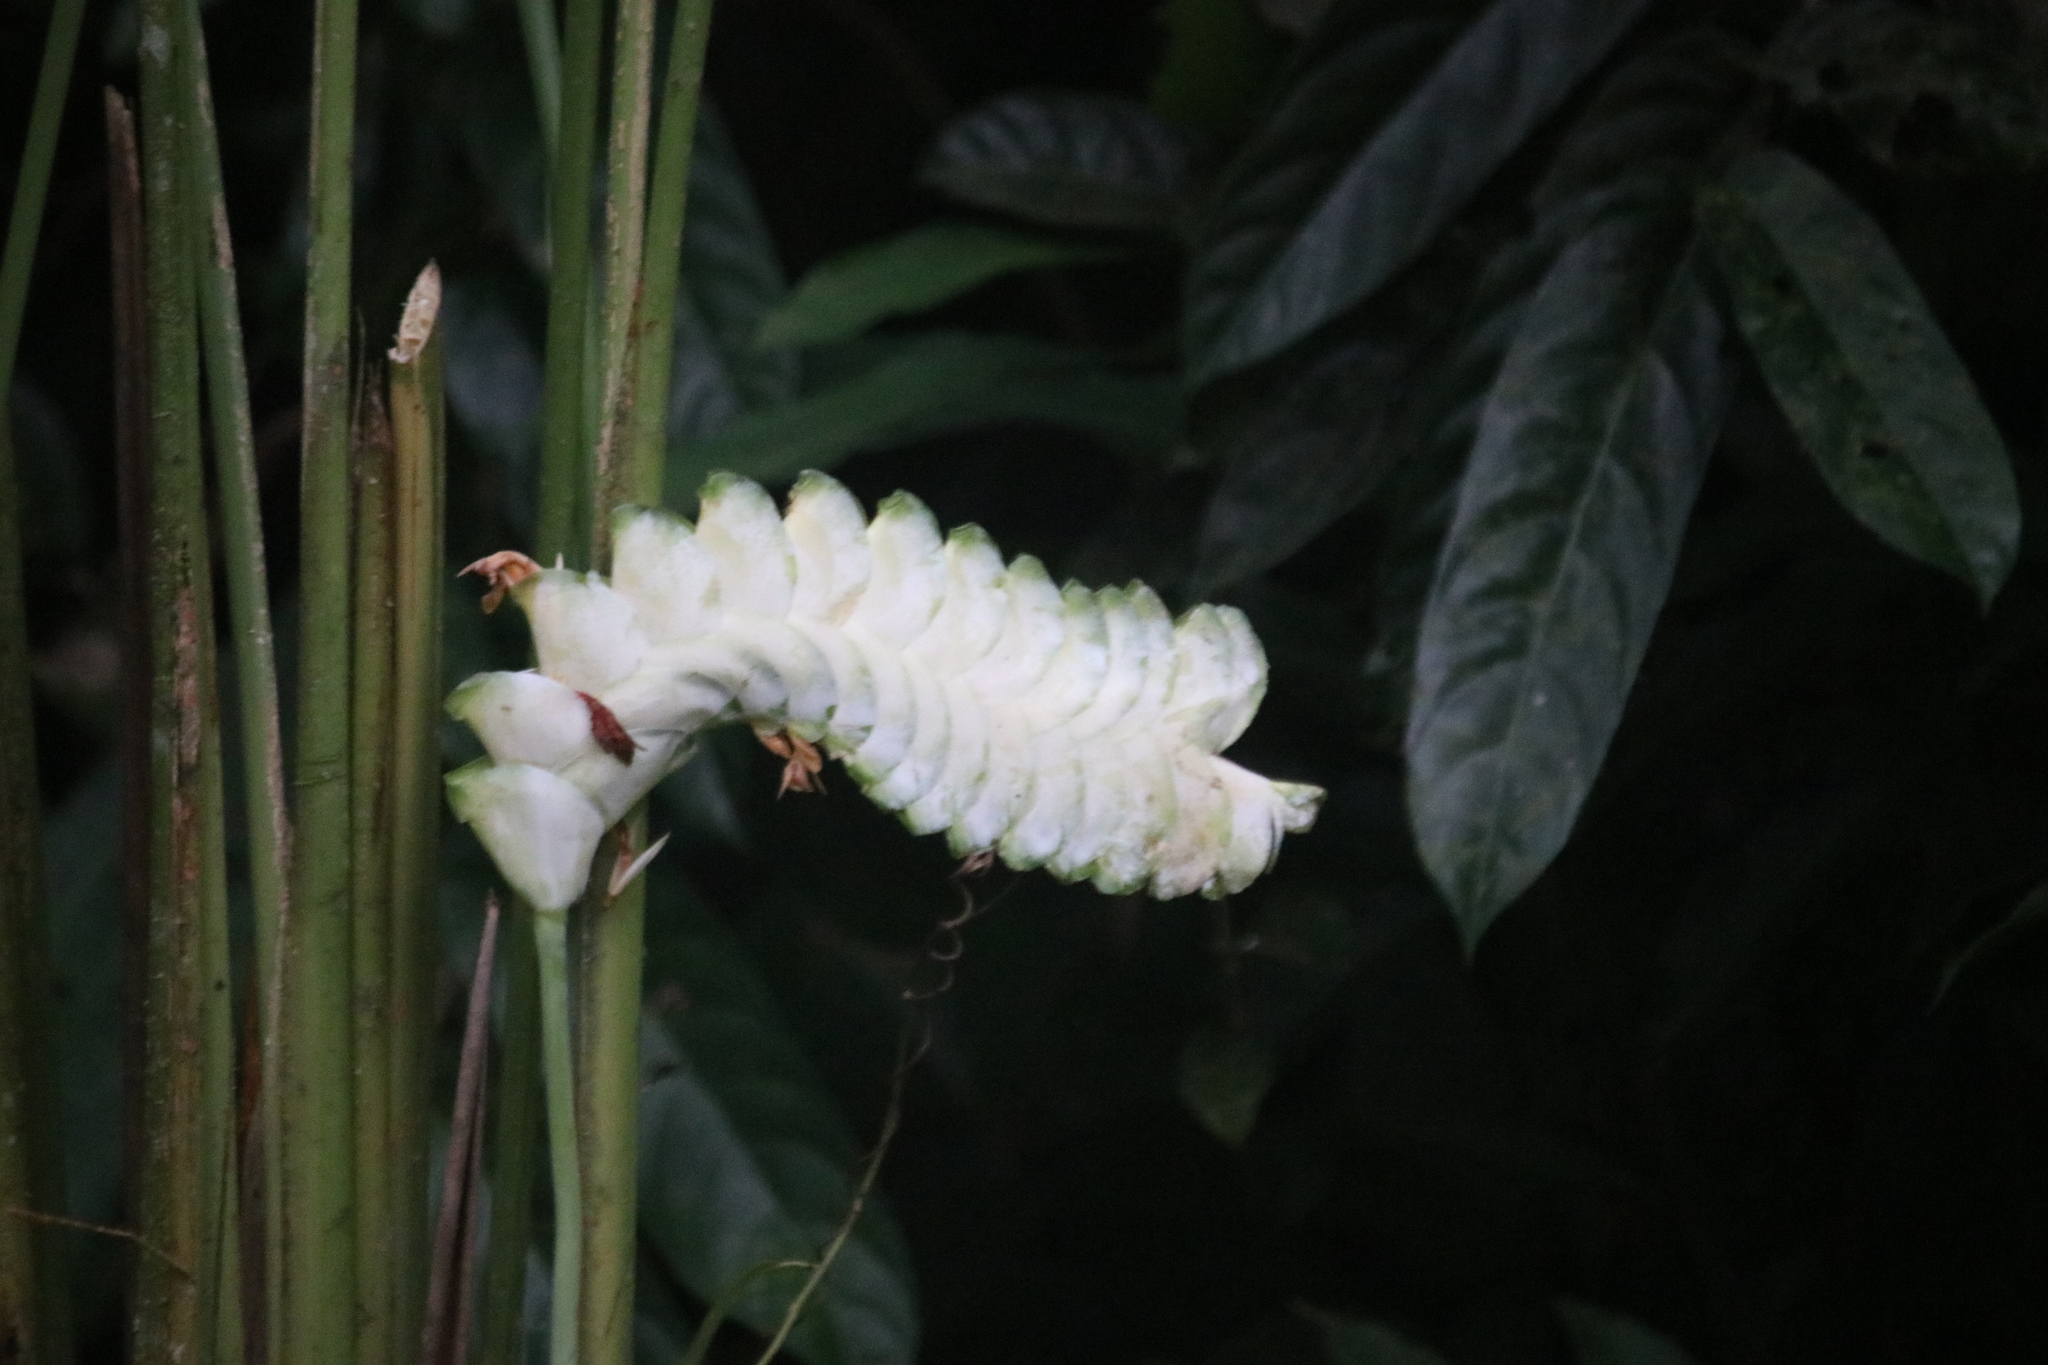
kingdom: Plantae
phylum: Tracheophyta
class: Liliopsida
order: Zingiberales
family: Marantaceae
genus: Calathea
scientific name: Calathea platystachya
